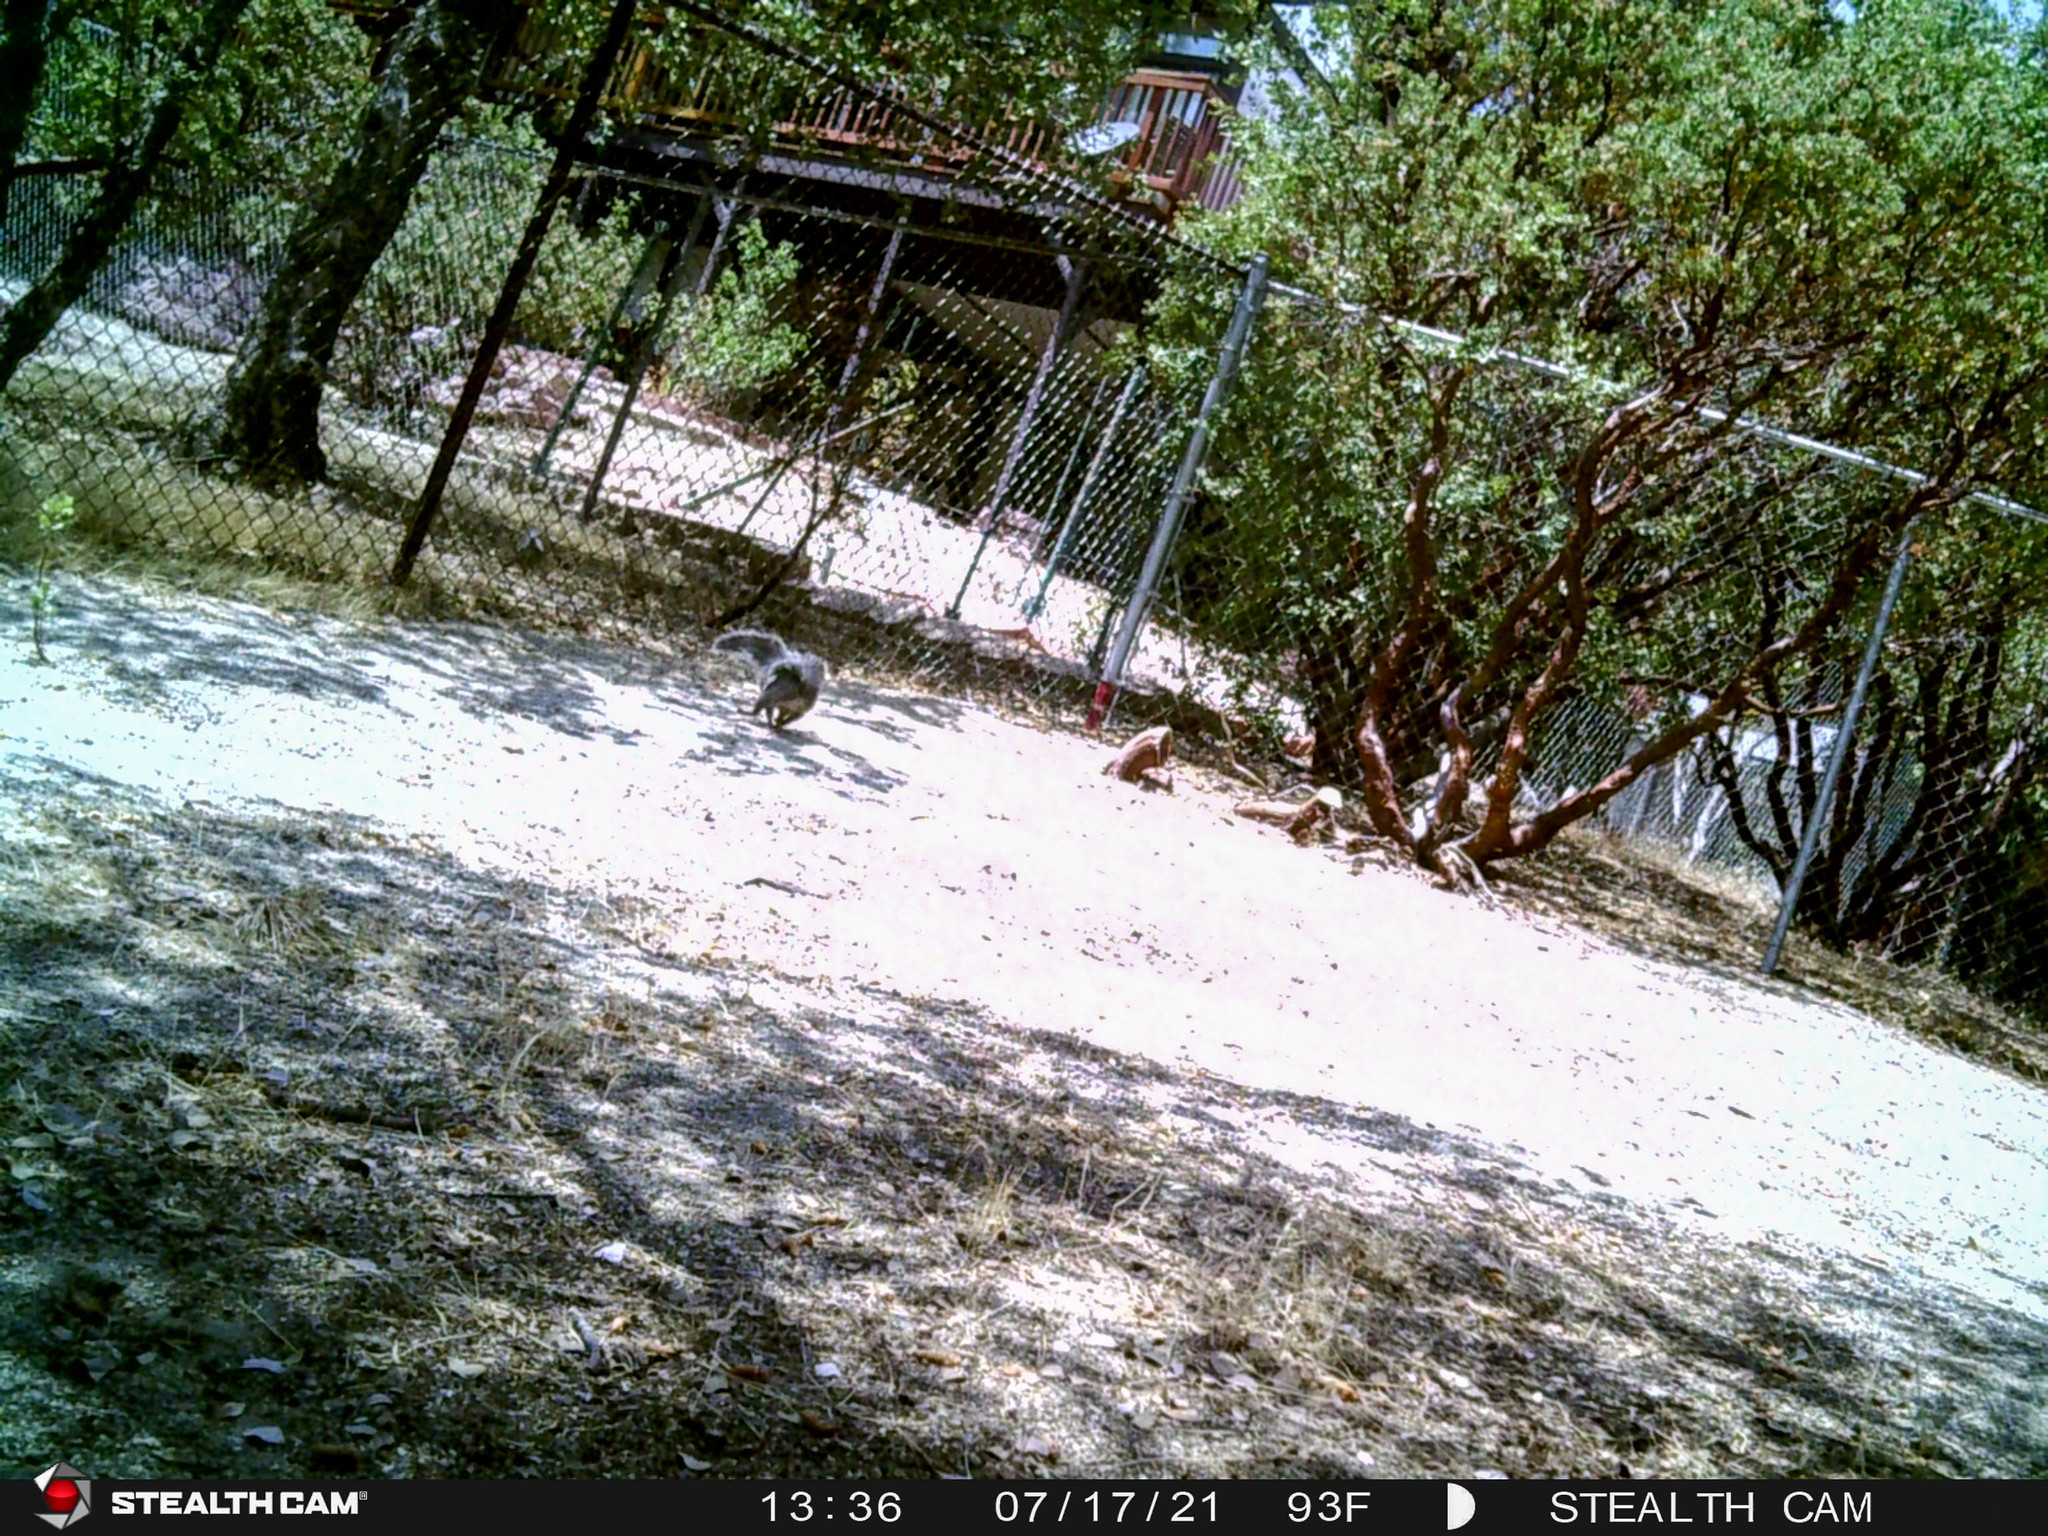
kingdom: Animalia
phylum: Chordata
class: Mammalia
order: Rodentia
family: Sciuridae
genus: Sciurus
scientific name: Sciurus griseus
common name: Western gray squirrel
